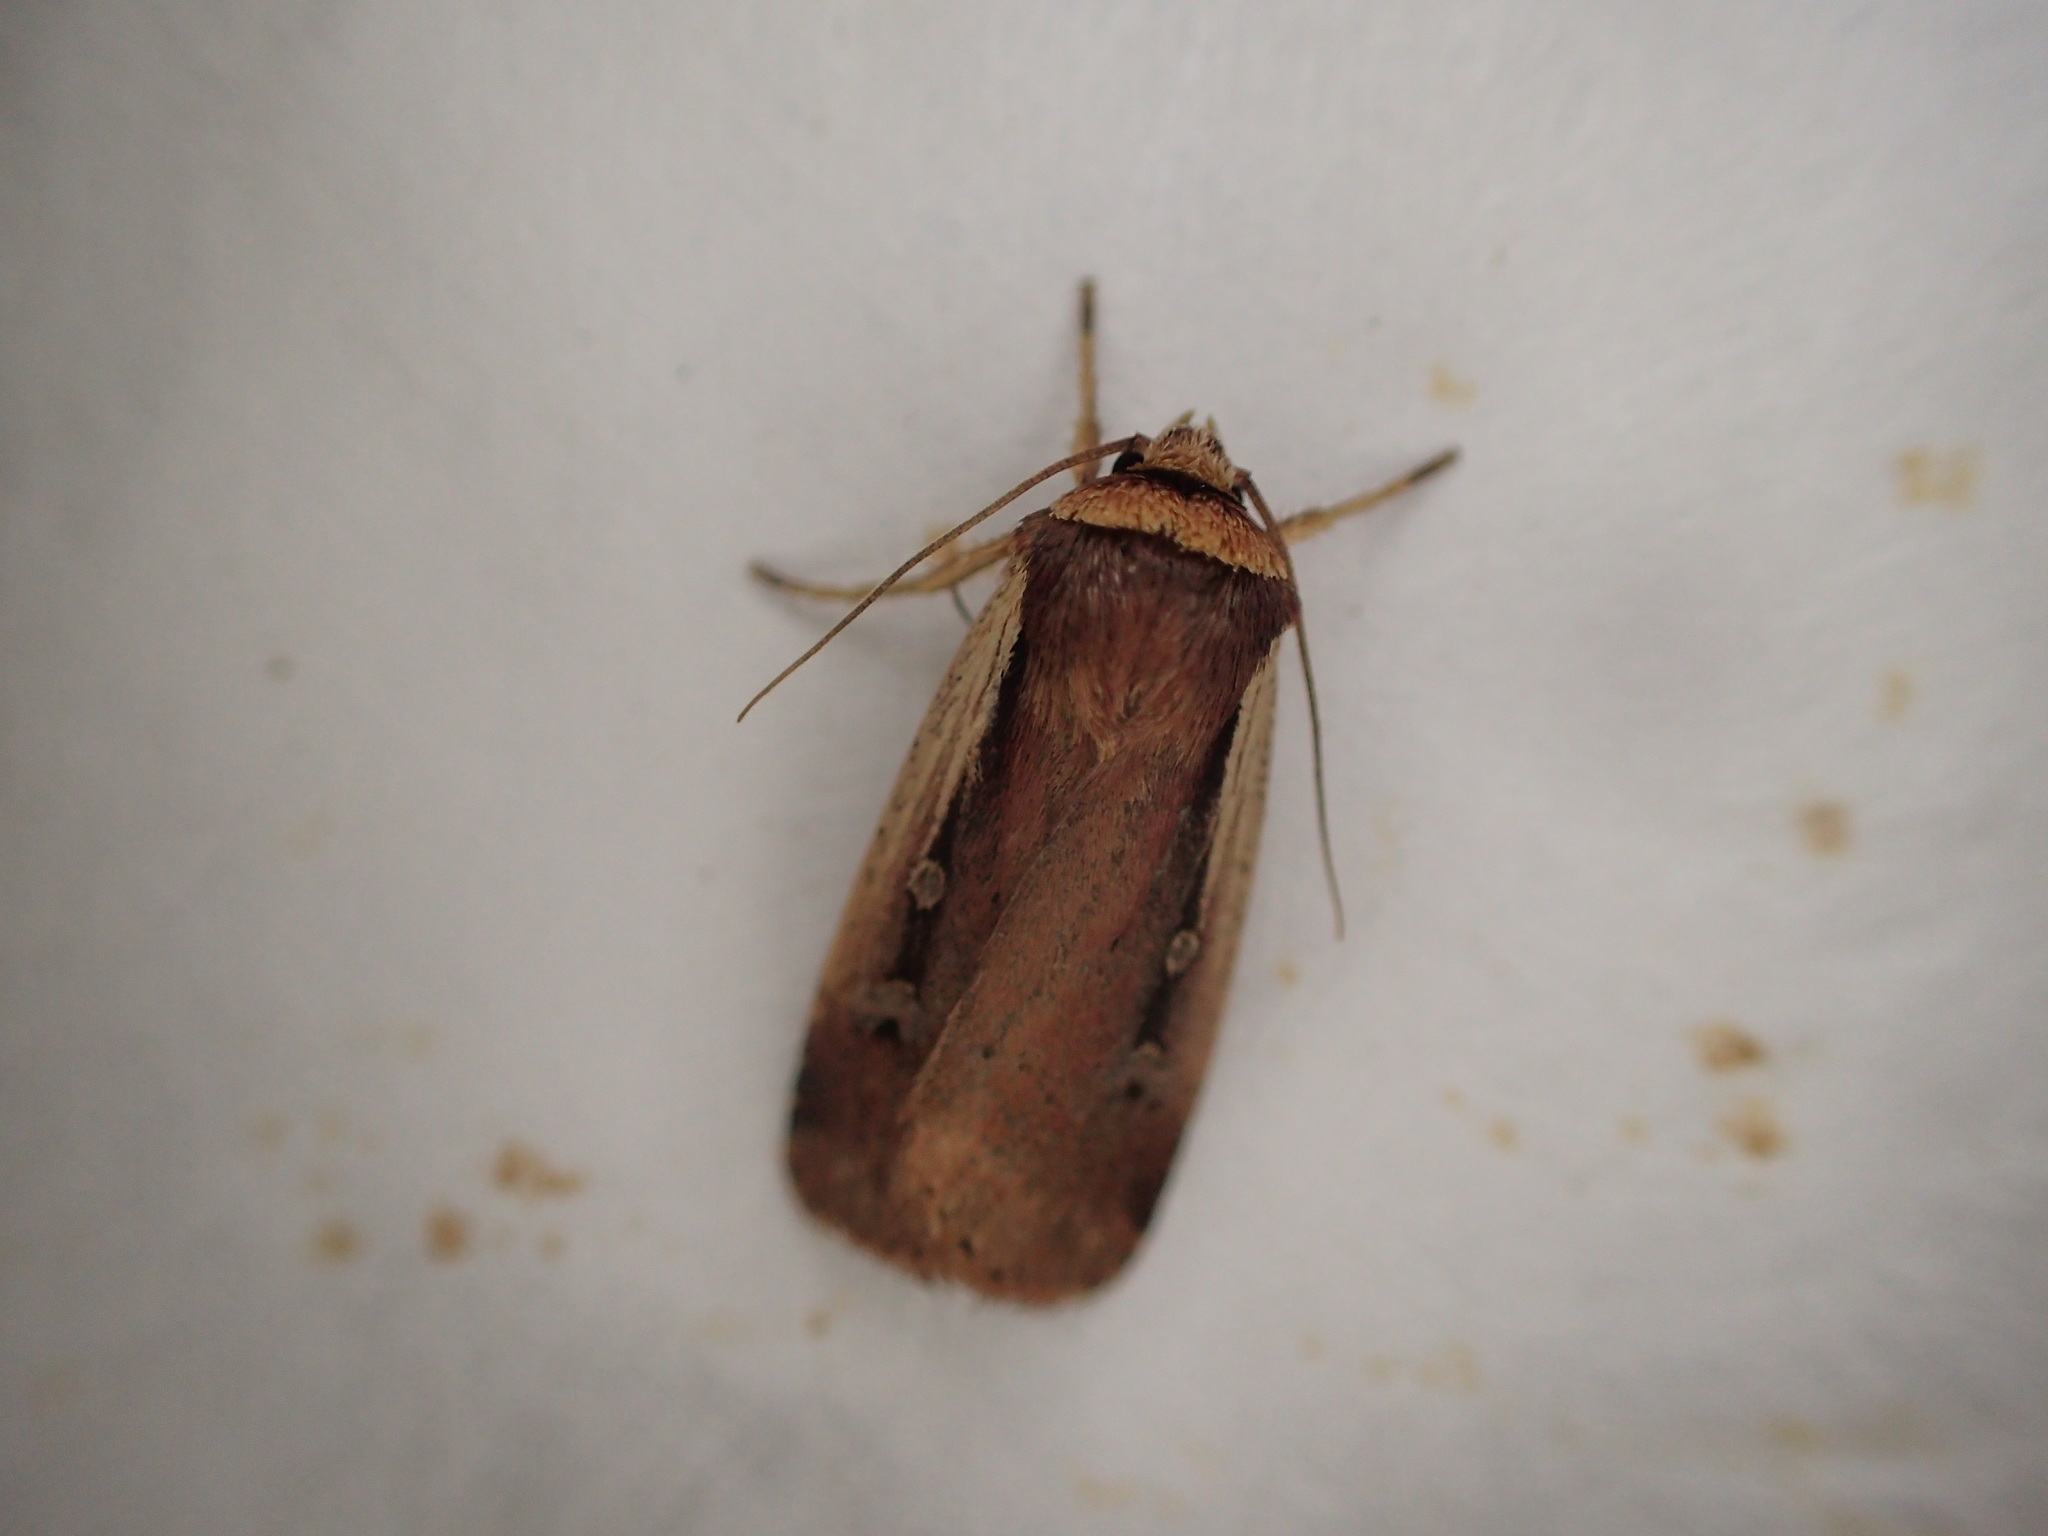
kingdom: Animalia
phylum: Arthropoda
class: Insecta
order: Lepidoptera
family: Noctuidae
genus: Ochropleura
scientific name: Ochropleura implecta
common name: Flame-shouldered dart
